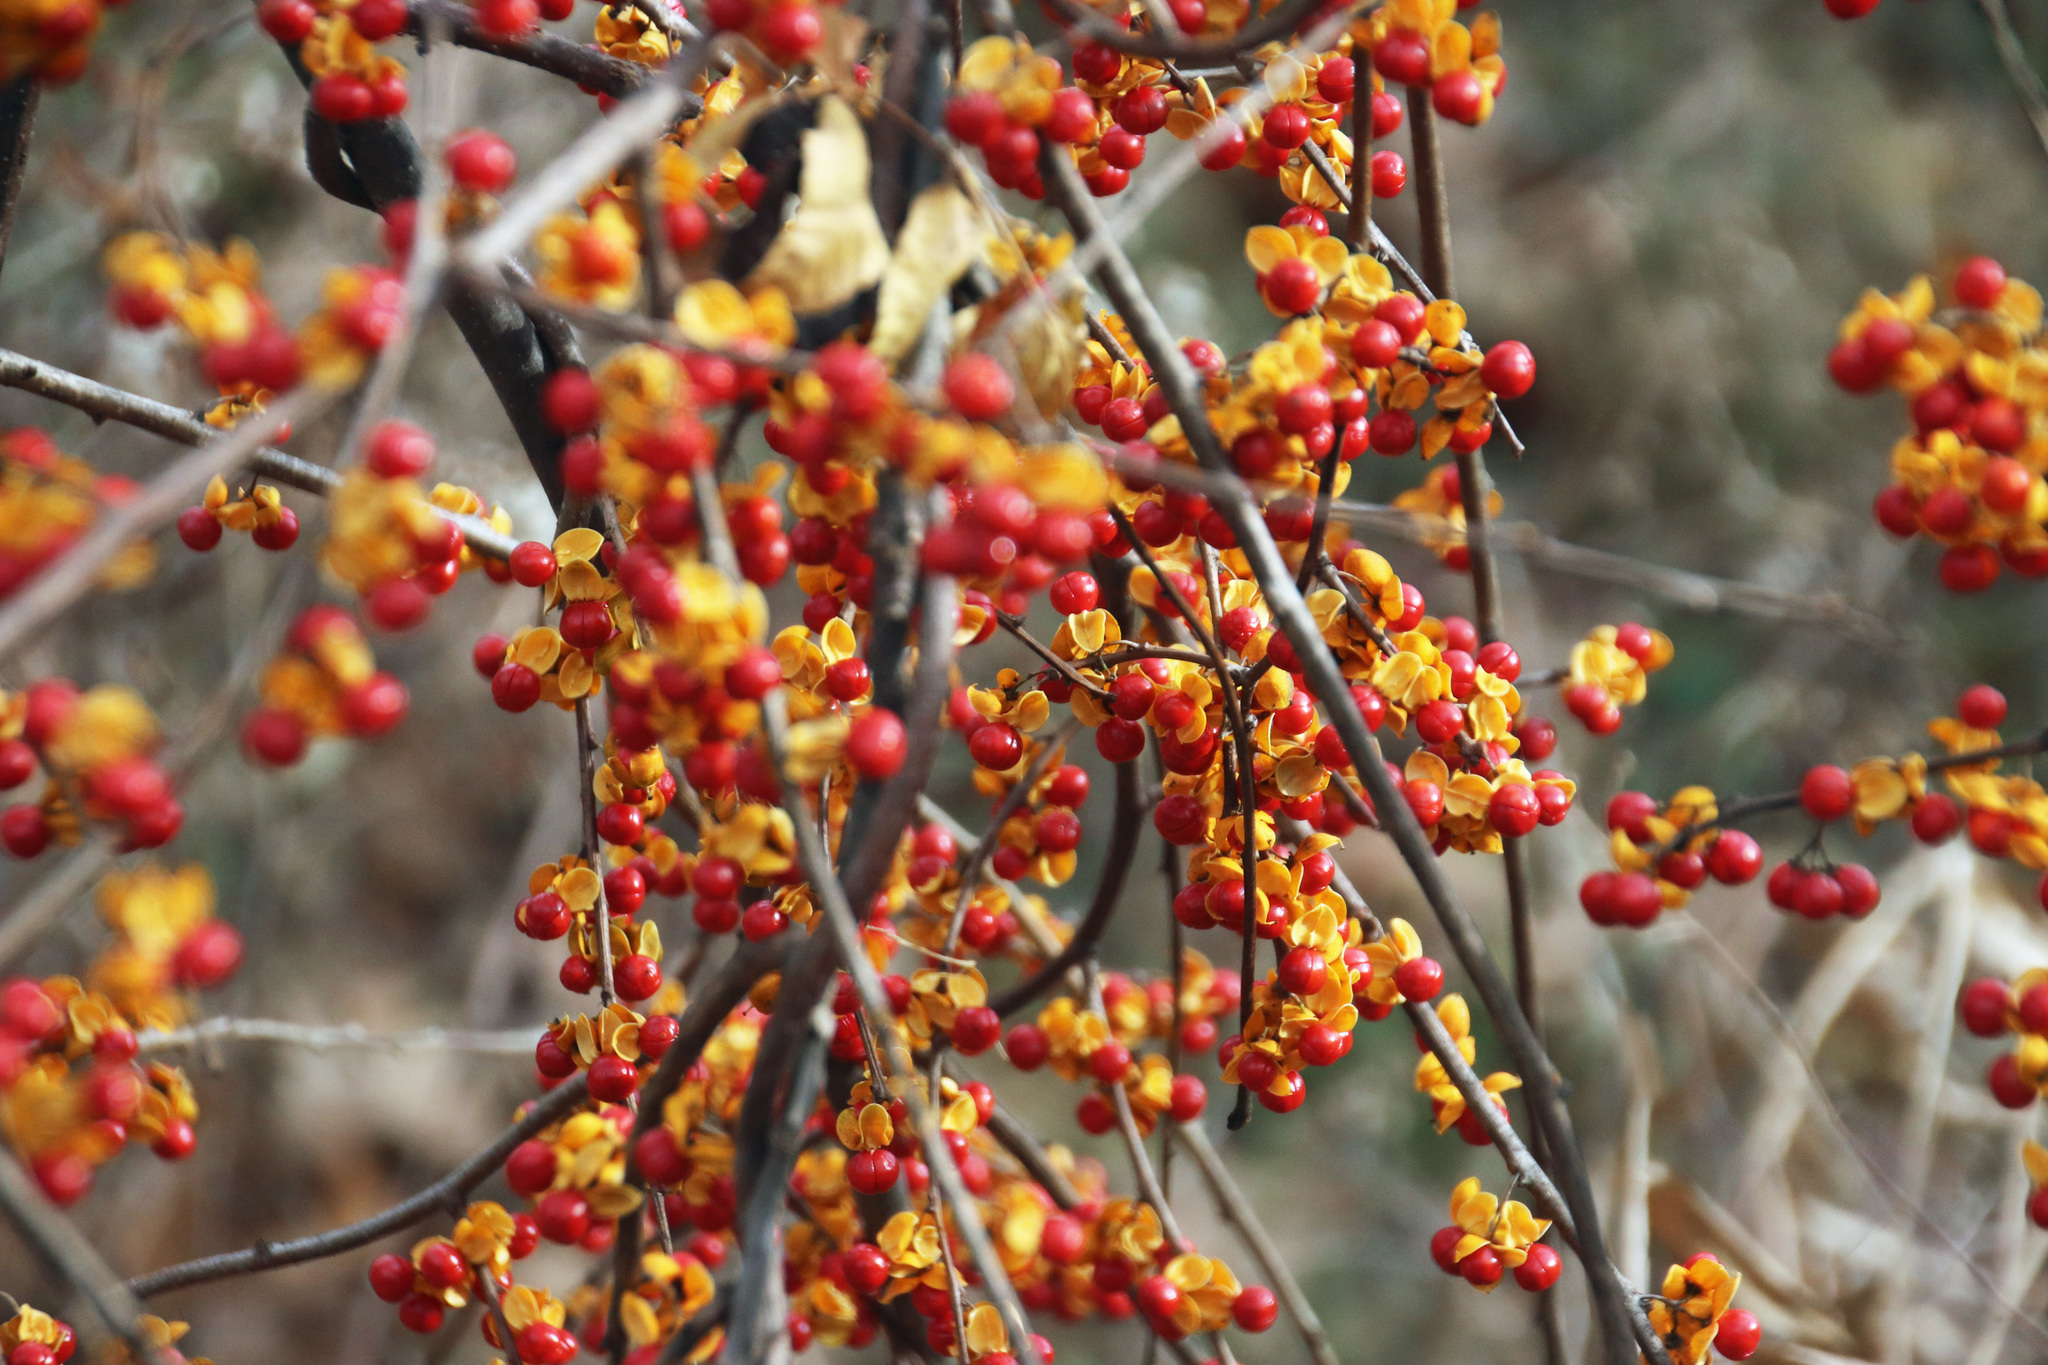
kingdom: Plantae
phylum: Tracheophyta
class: Magnoliopsida
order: Celastrales
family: Celastraceae
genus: Celastrus
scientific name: Celastrus orbiculatus
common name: Oriental bittersweet
